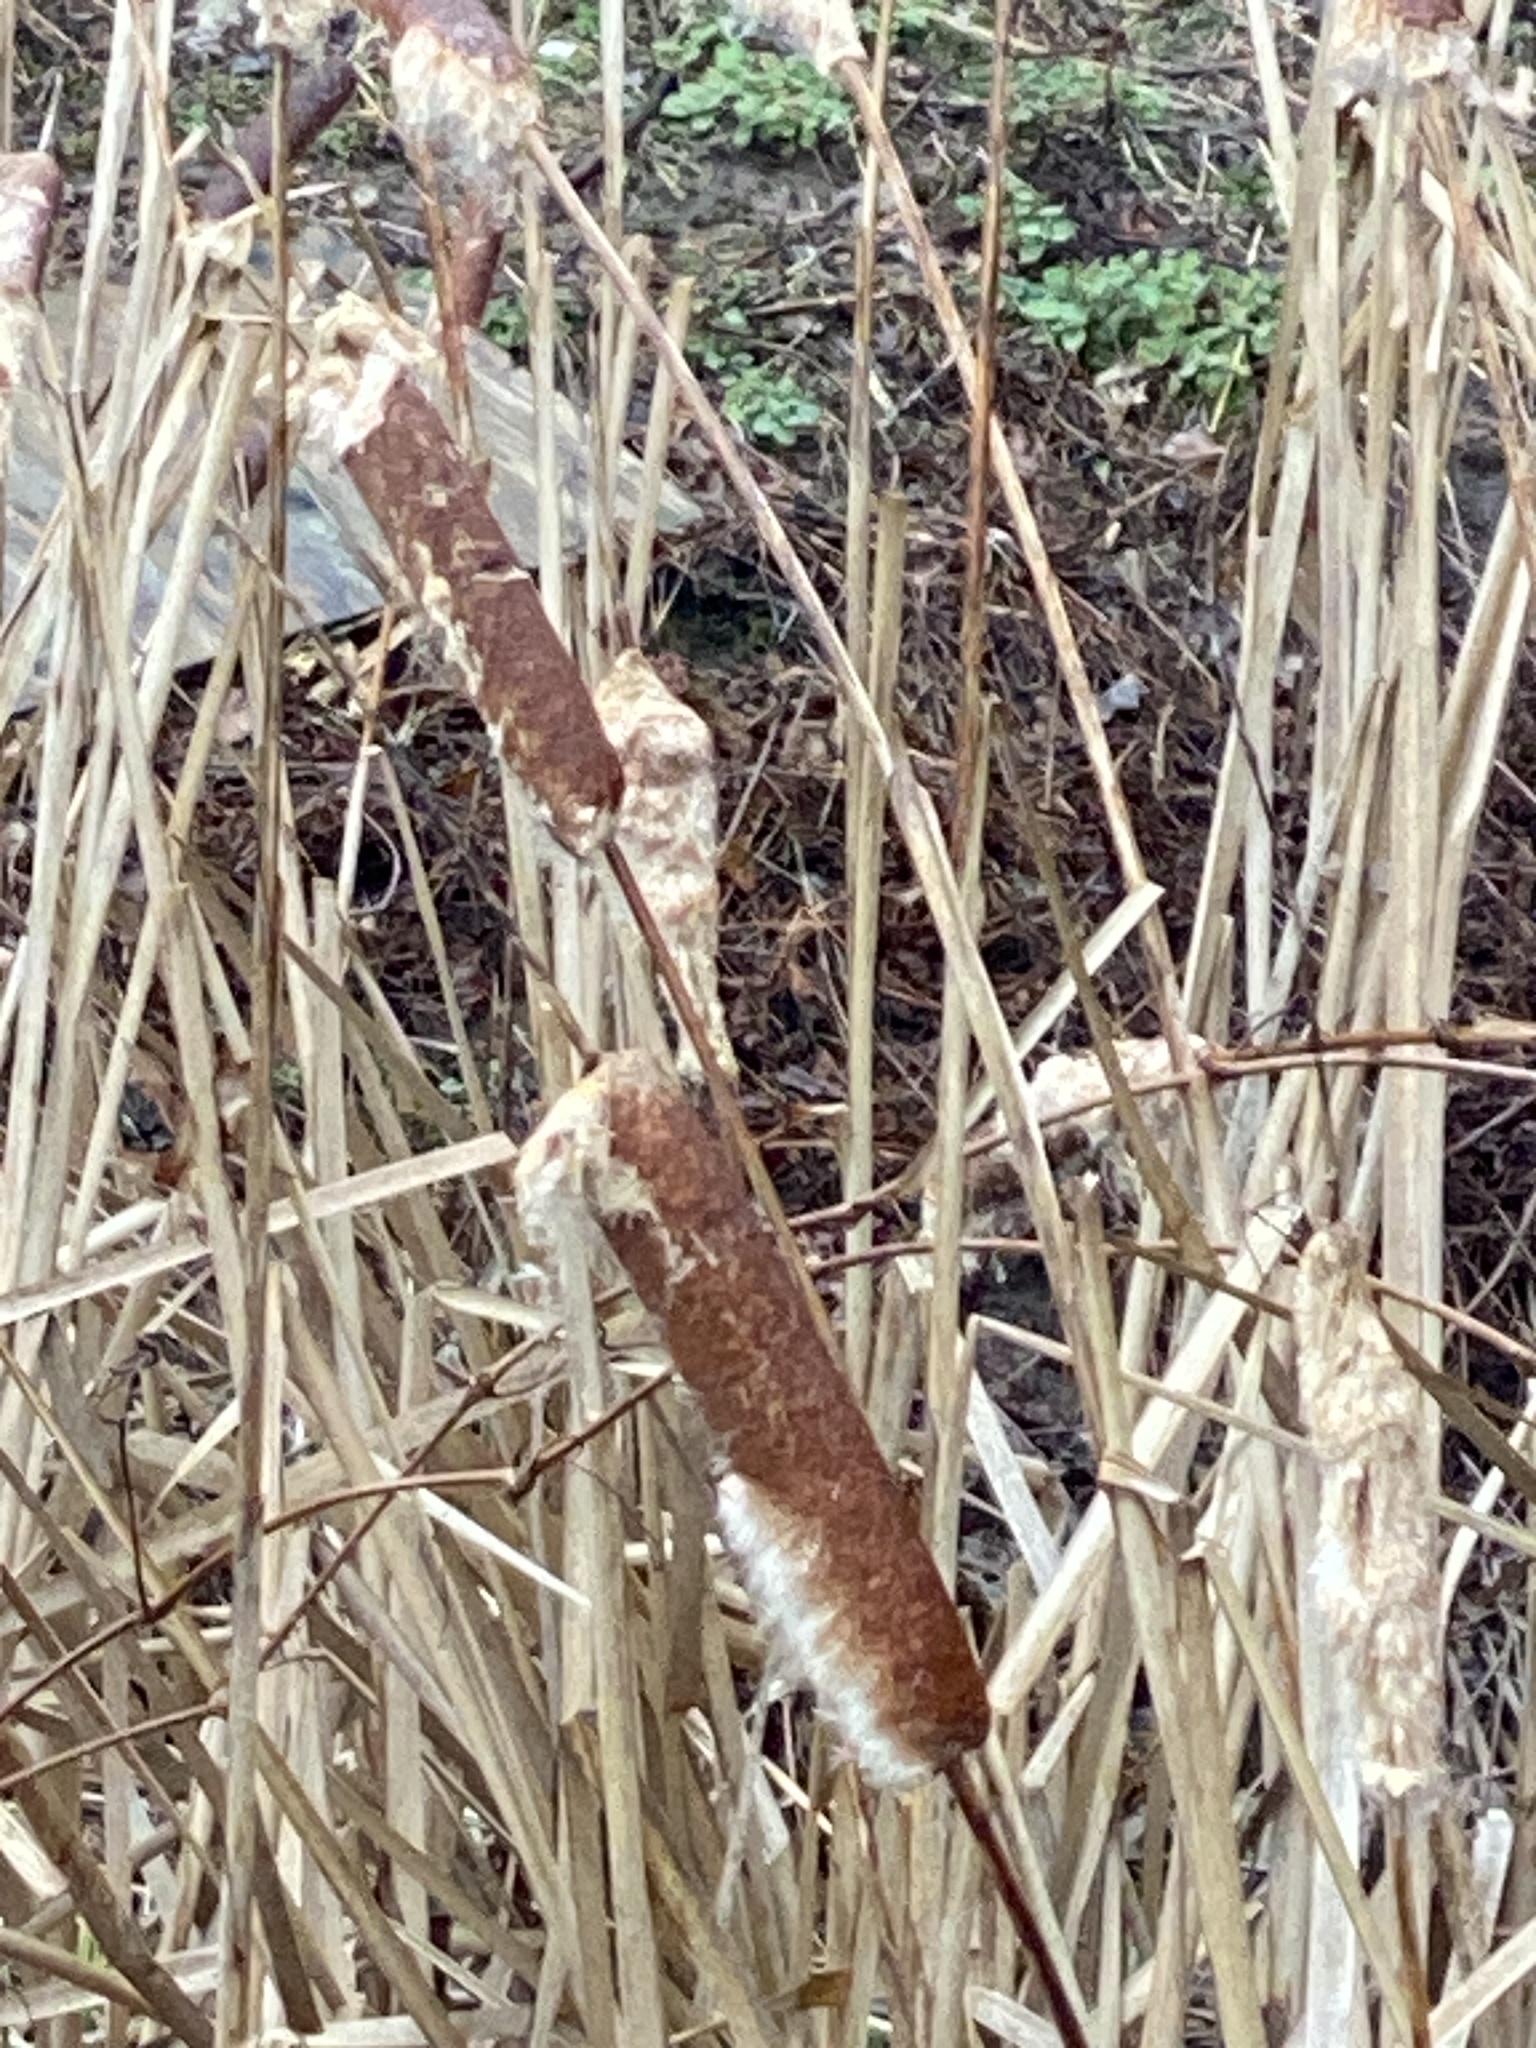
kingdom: Plantae
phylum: Tracheophyta
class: Liliopsida
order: Poales
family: Typhaceae
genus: Typha
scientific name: Typha
